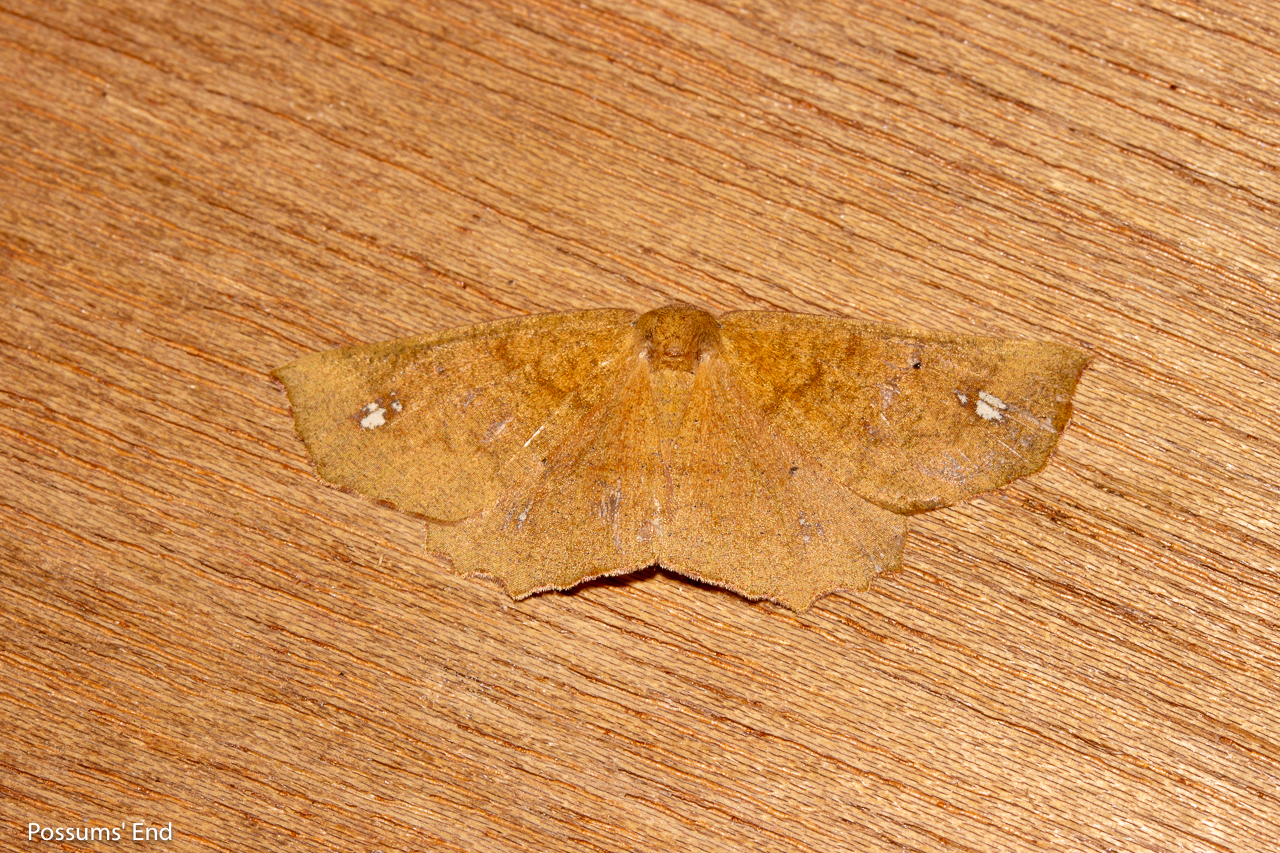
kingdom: Animalia
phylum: Arthropoda
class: Insecta
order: Lepidoptera
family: Geometridae
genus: Xyridacma
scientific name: Xyridacma ustaria
